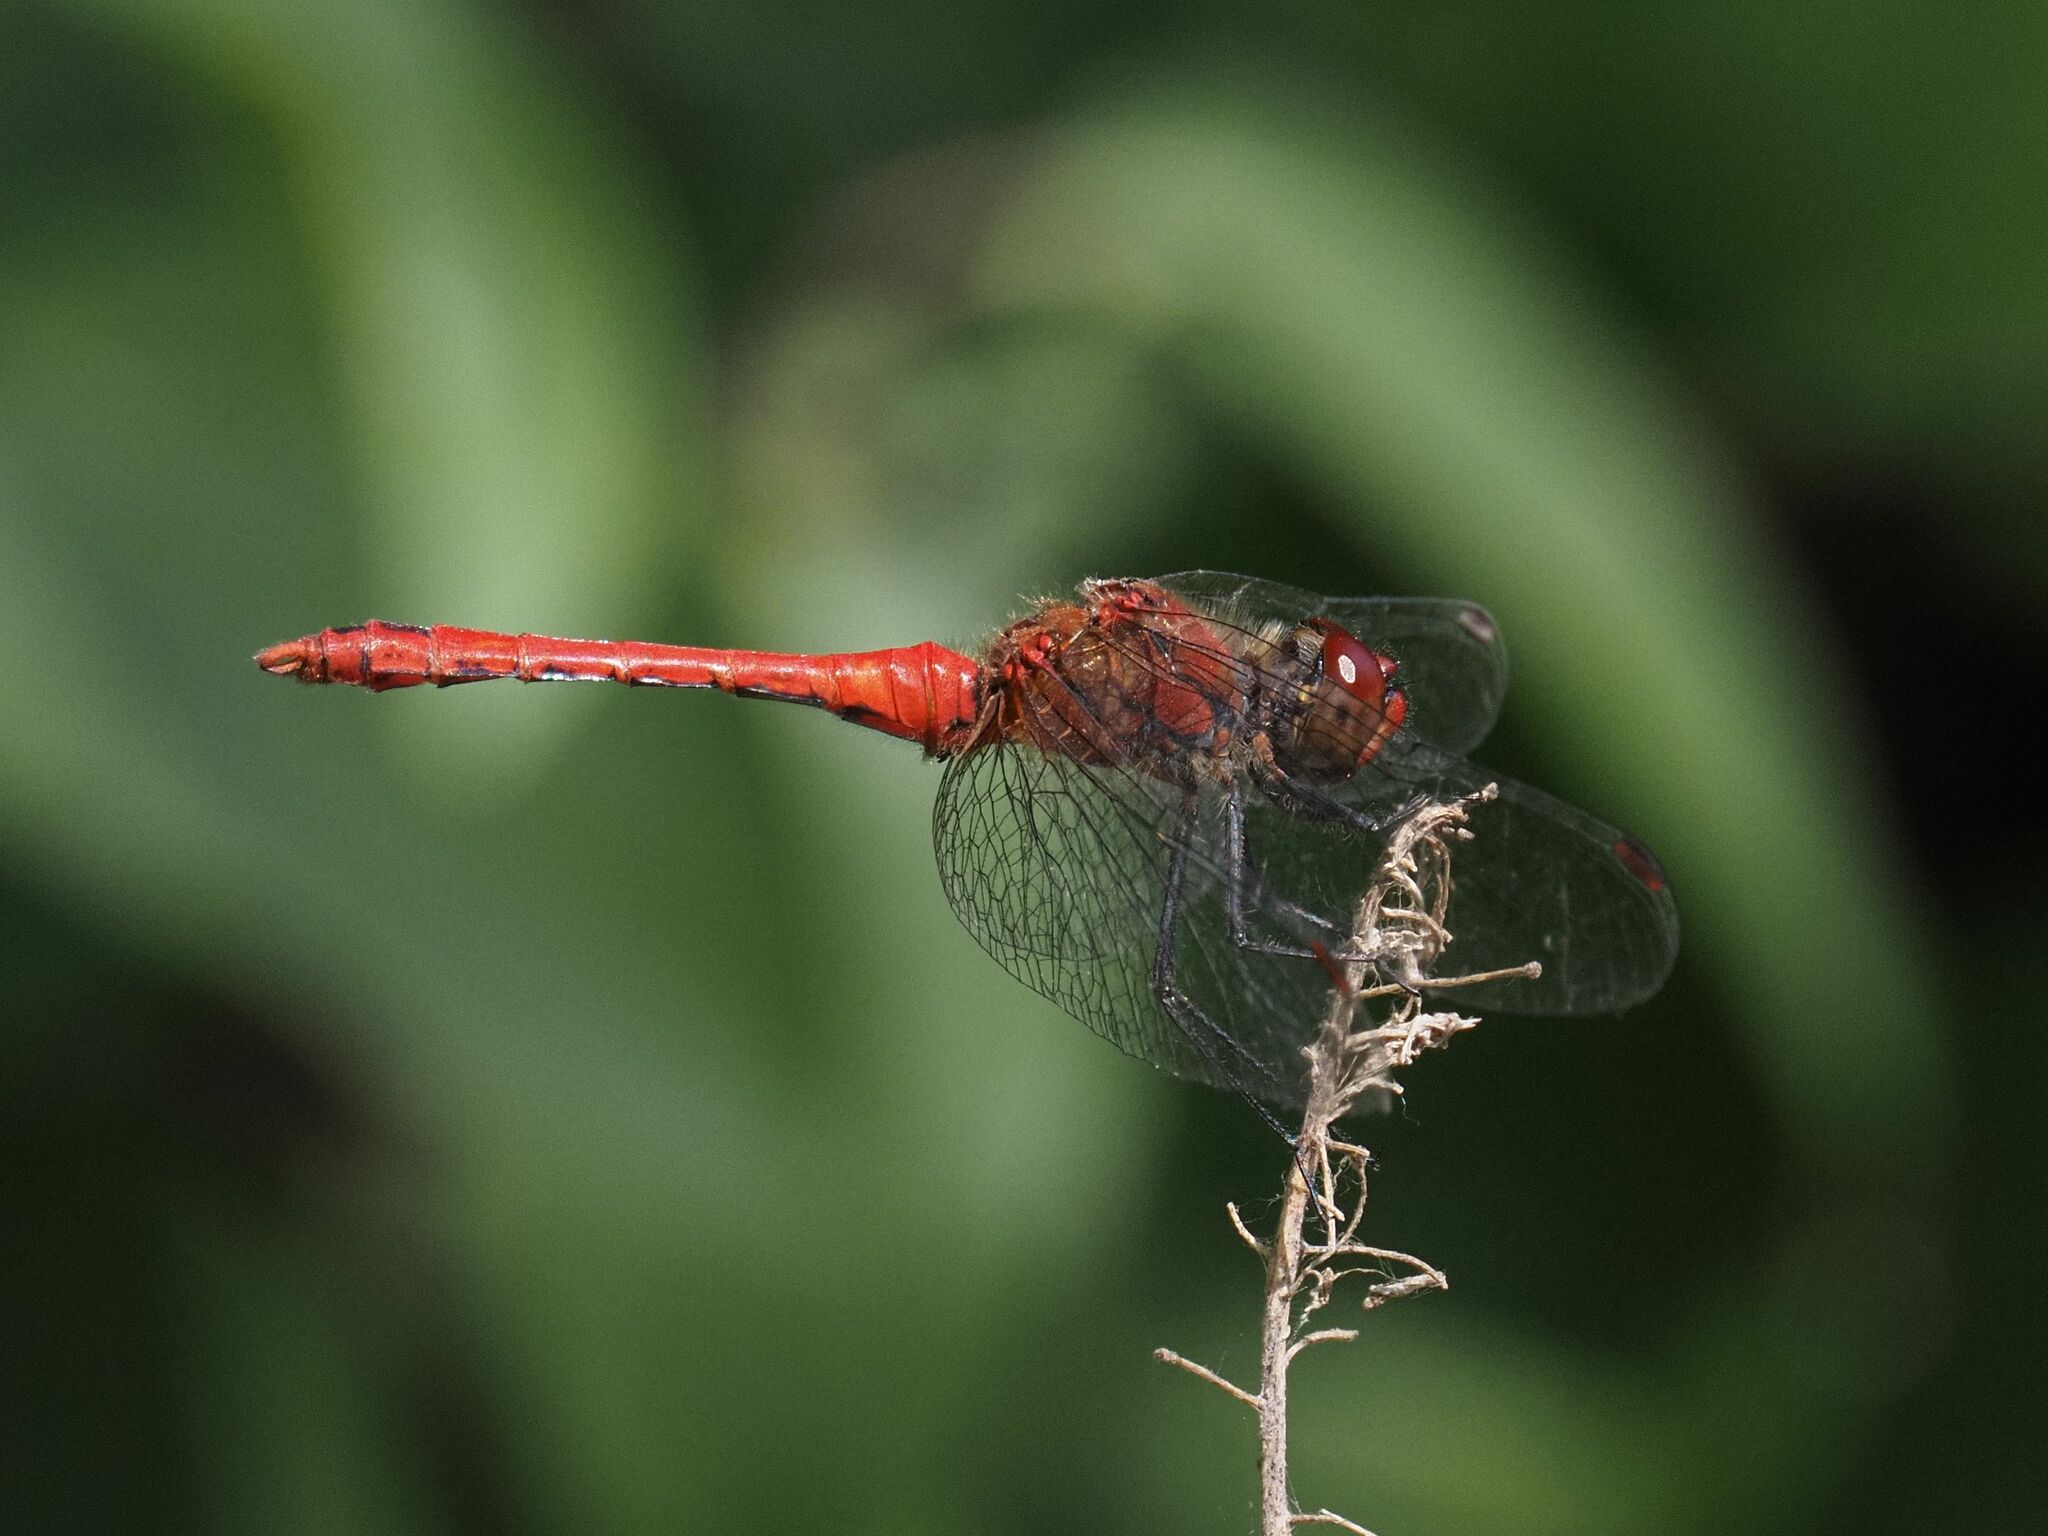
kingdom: Animalia
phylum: Arthropoda
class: Insecta
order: Odonata
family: Libellulidae
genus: Sympetrum
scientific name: Sympetrum sanguineum
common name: Ruddy darter
